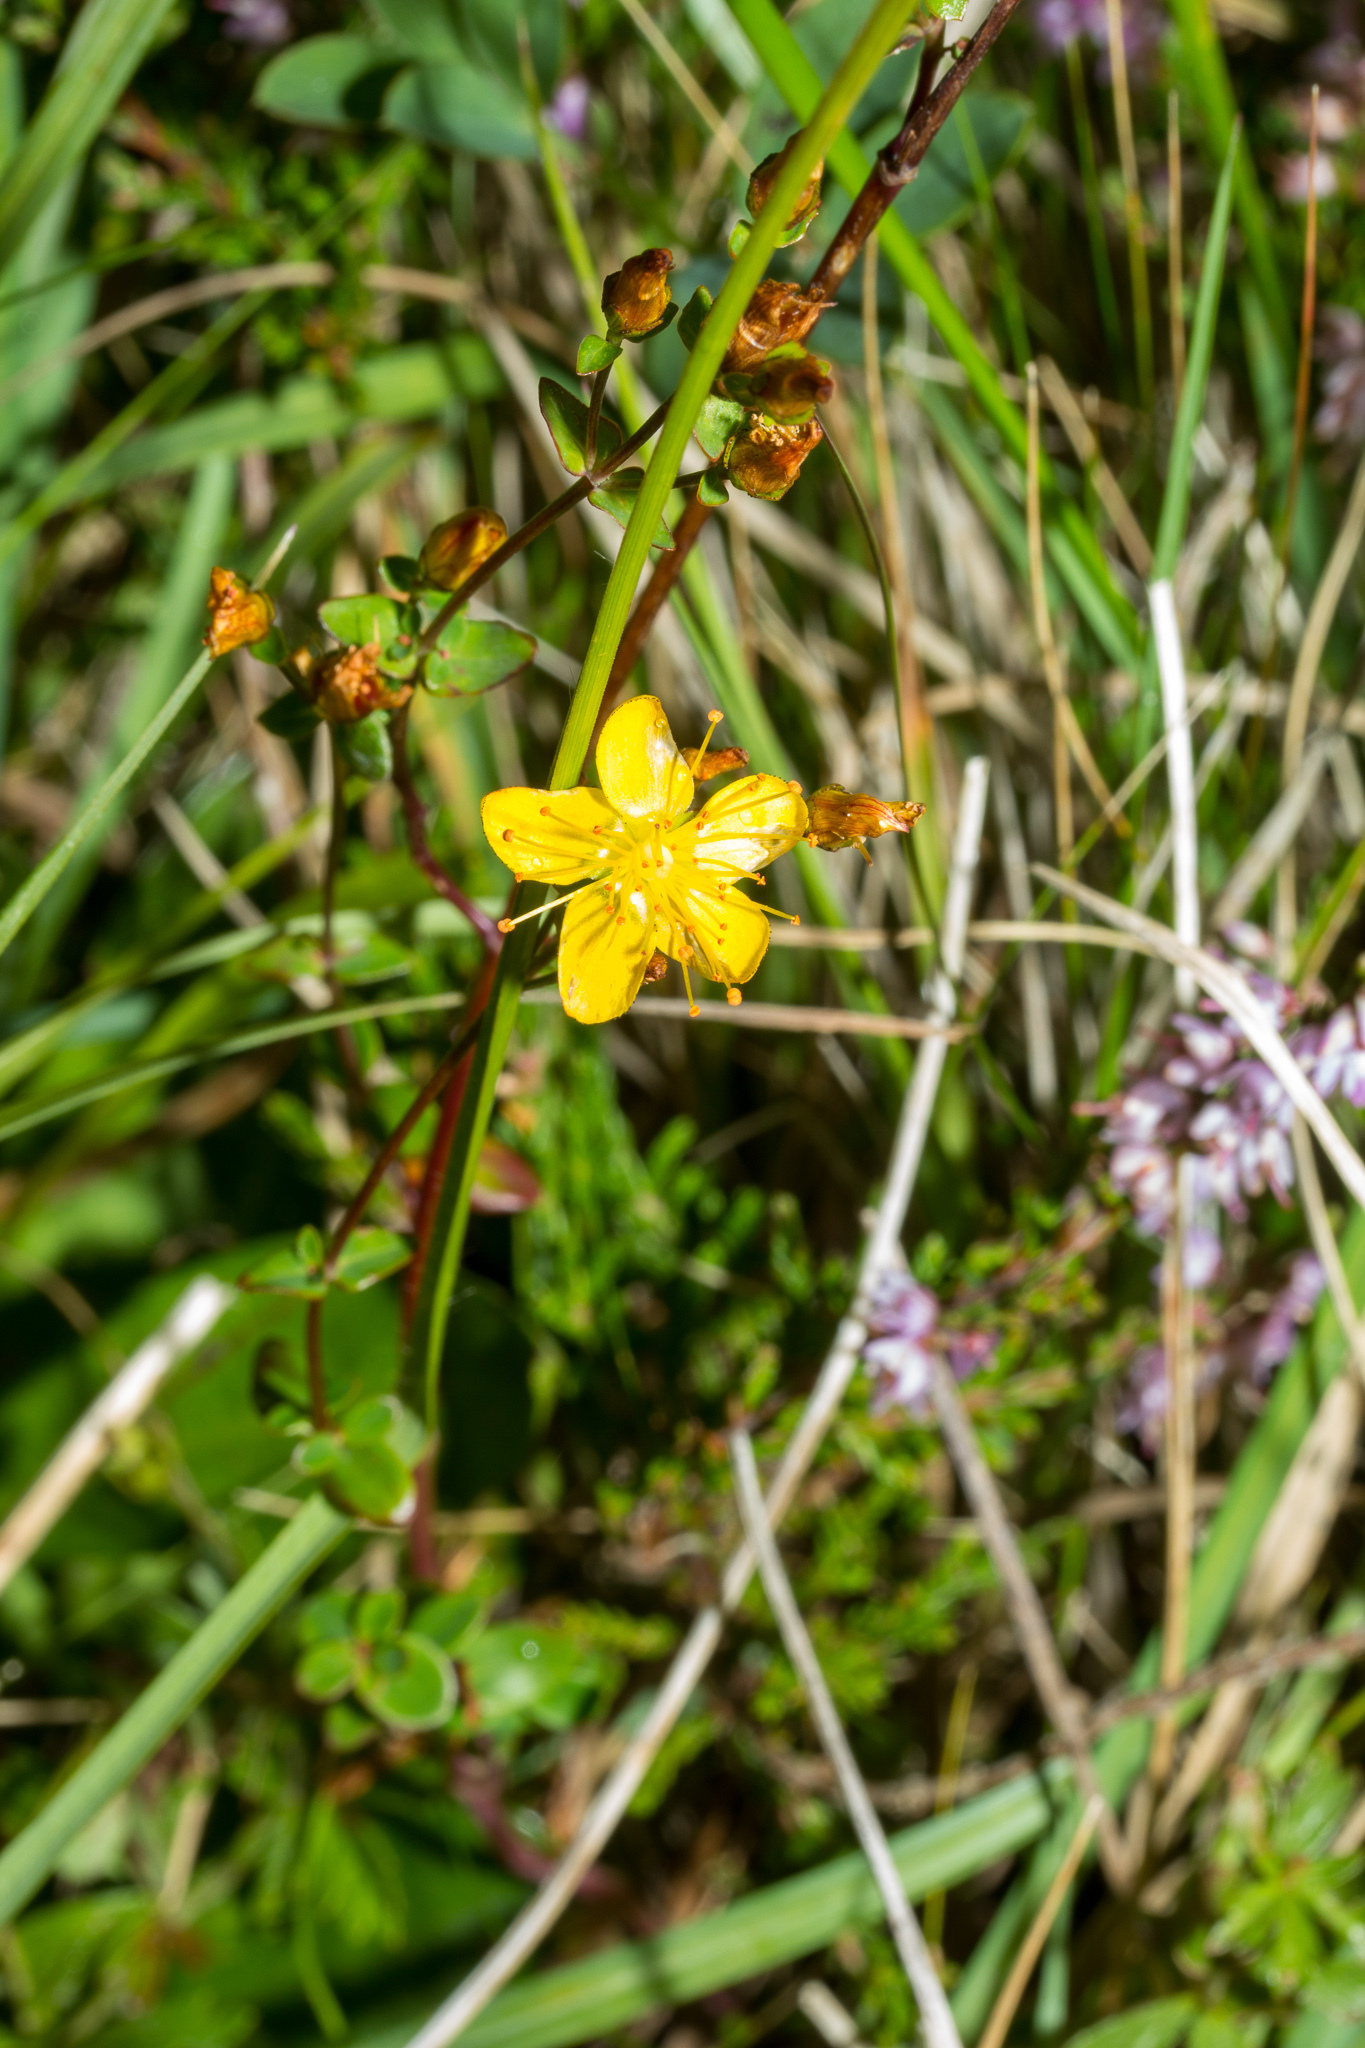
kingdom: Plantae
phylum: Tracheophyta
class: Magnoliopsida
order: Malpighiales
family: Hypericaceae
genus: Hypericum
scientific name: Hypericum pulchrum
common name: Slender st. john's-wort
